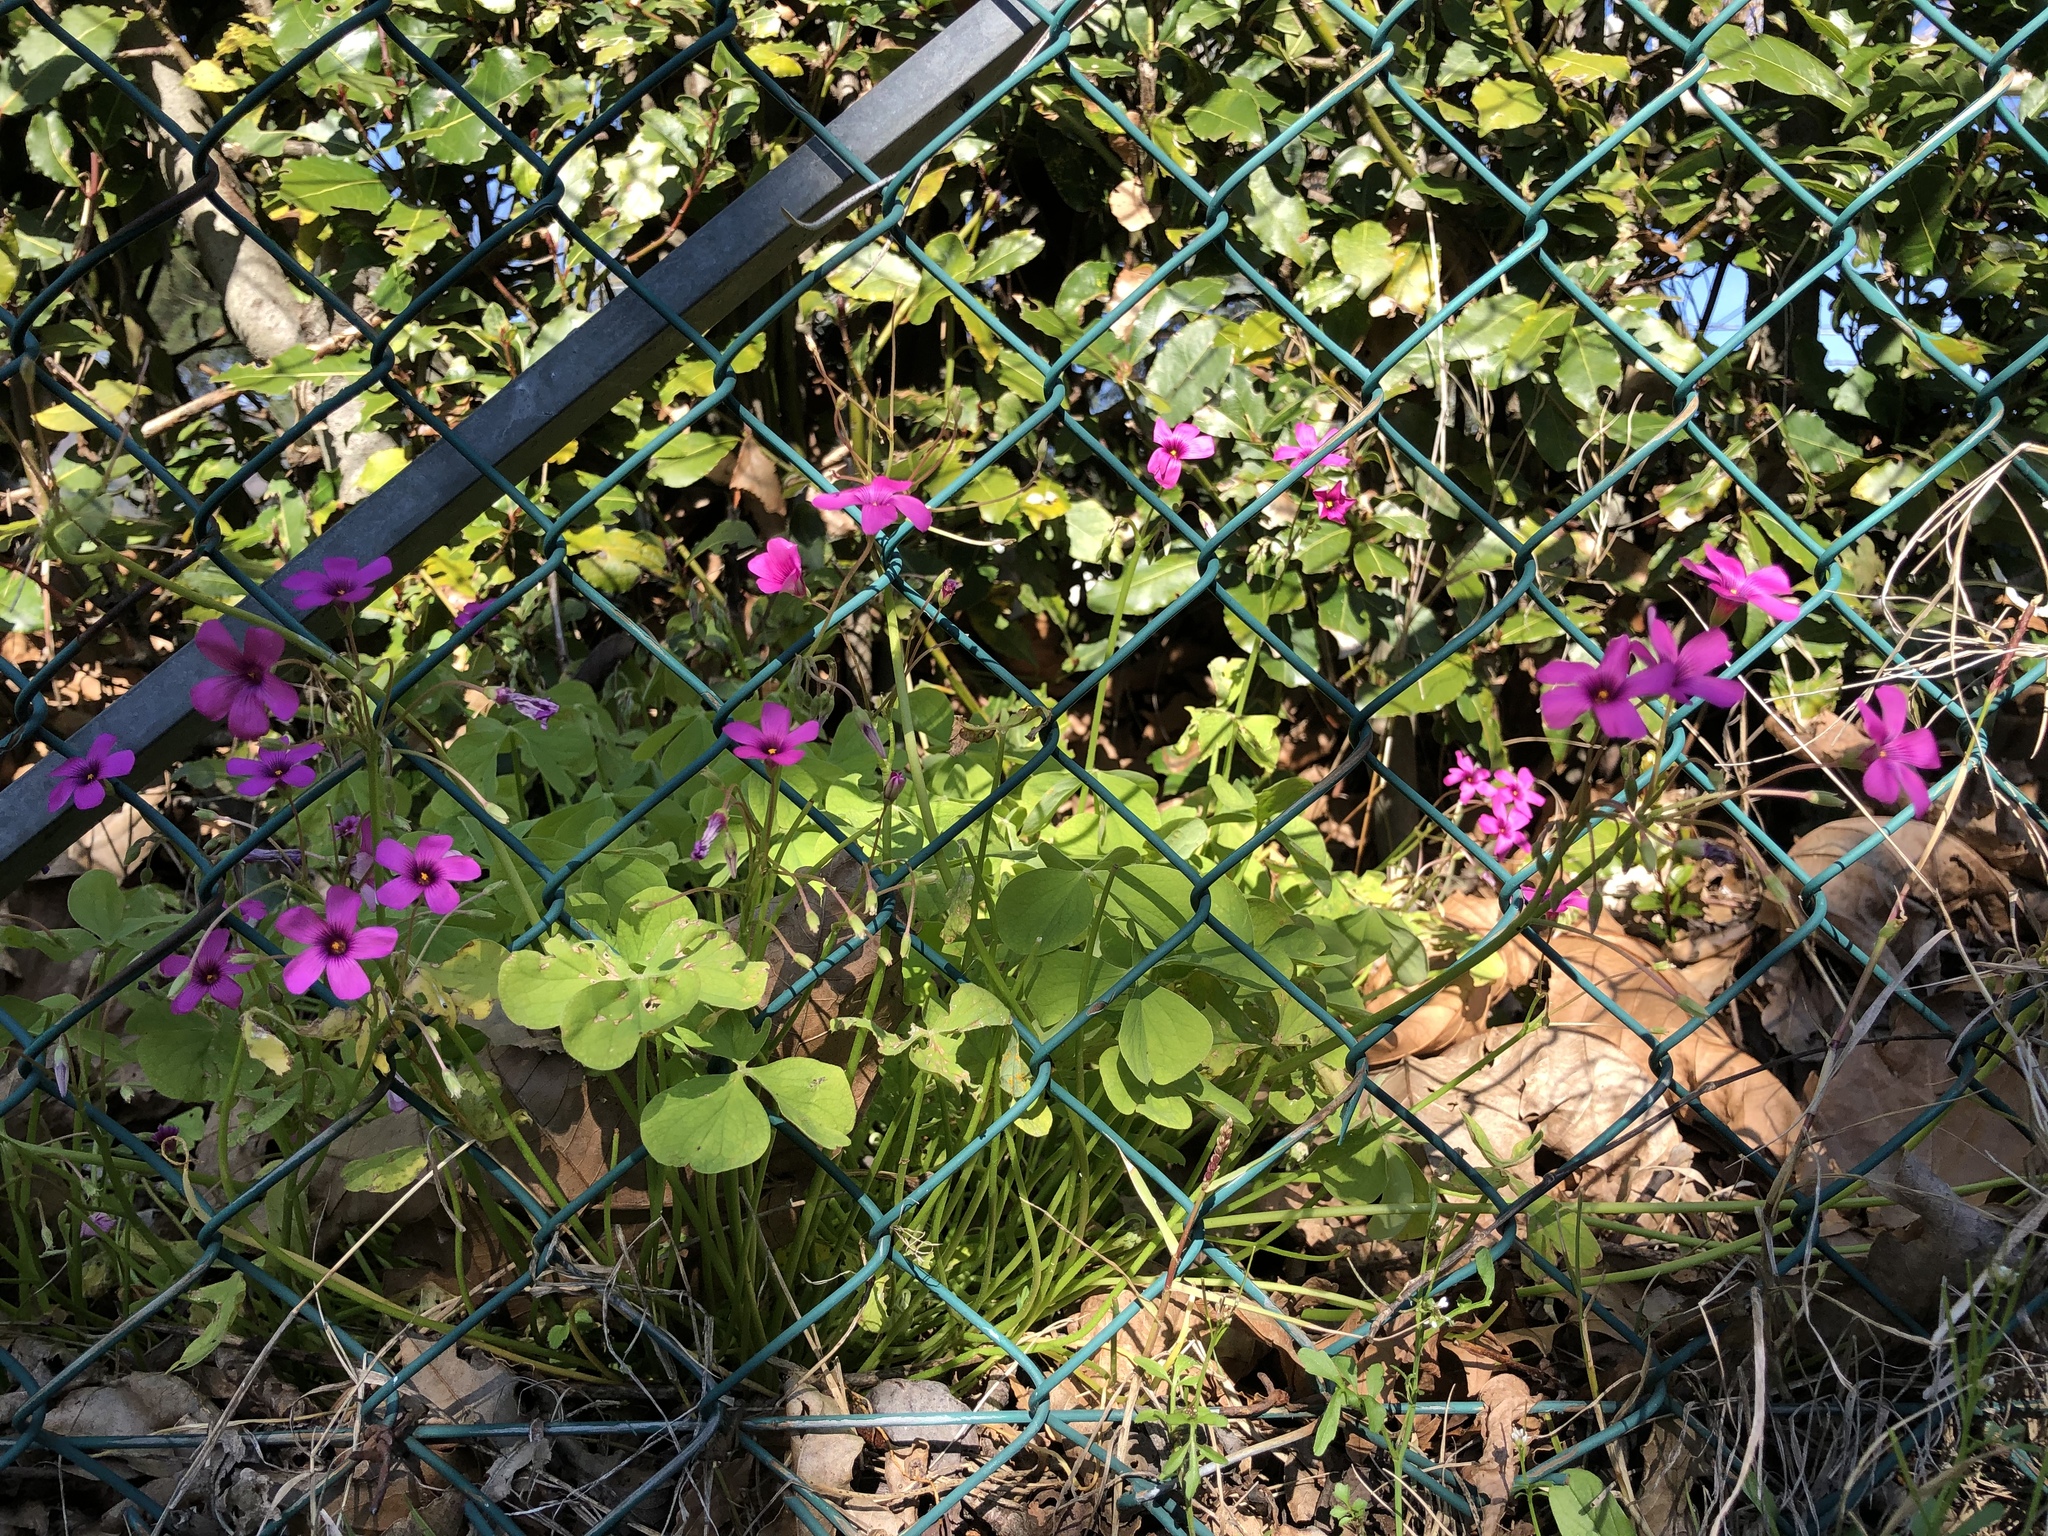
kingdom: Plantae
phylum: Tracheophyta
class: Magnoliopsida
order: Oxalidales
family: Oxalidaceae
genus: Oxalis
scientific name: Oxalis articulata
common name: Pink-sorrel
